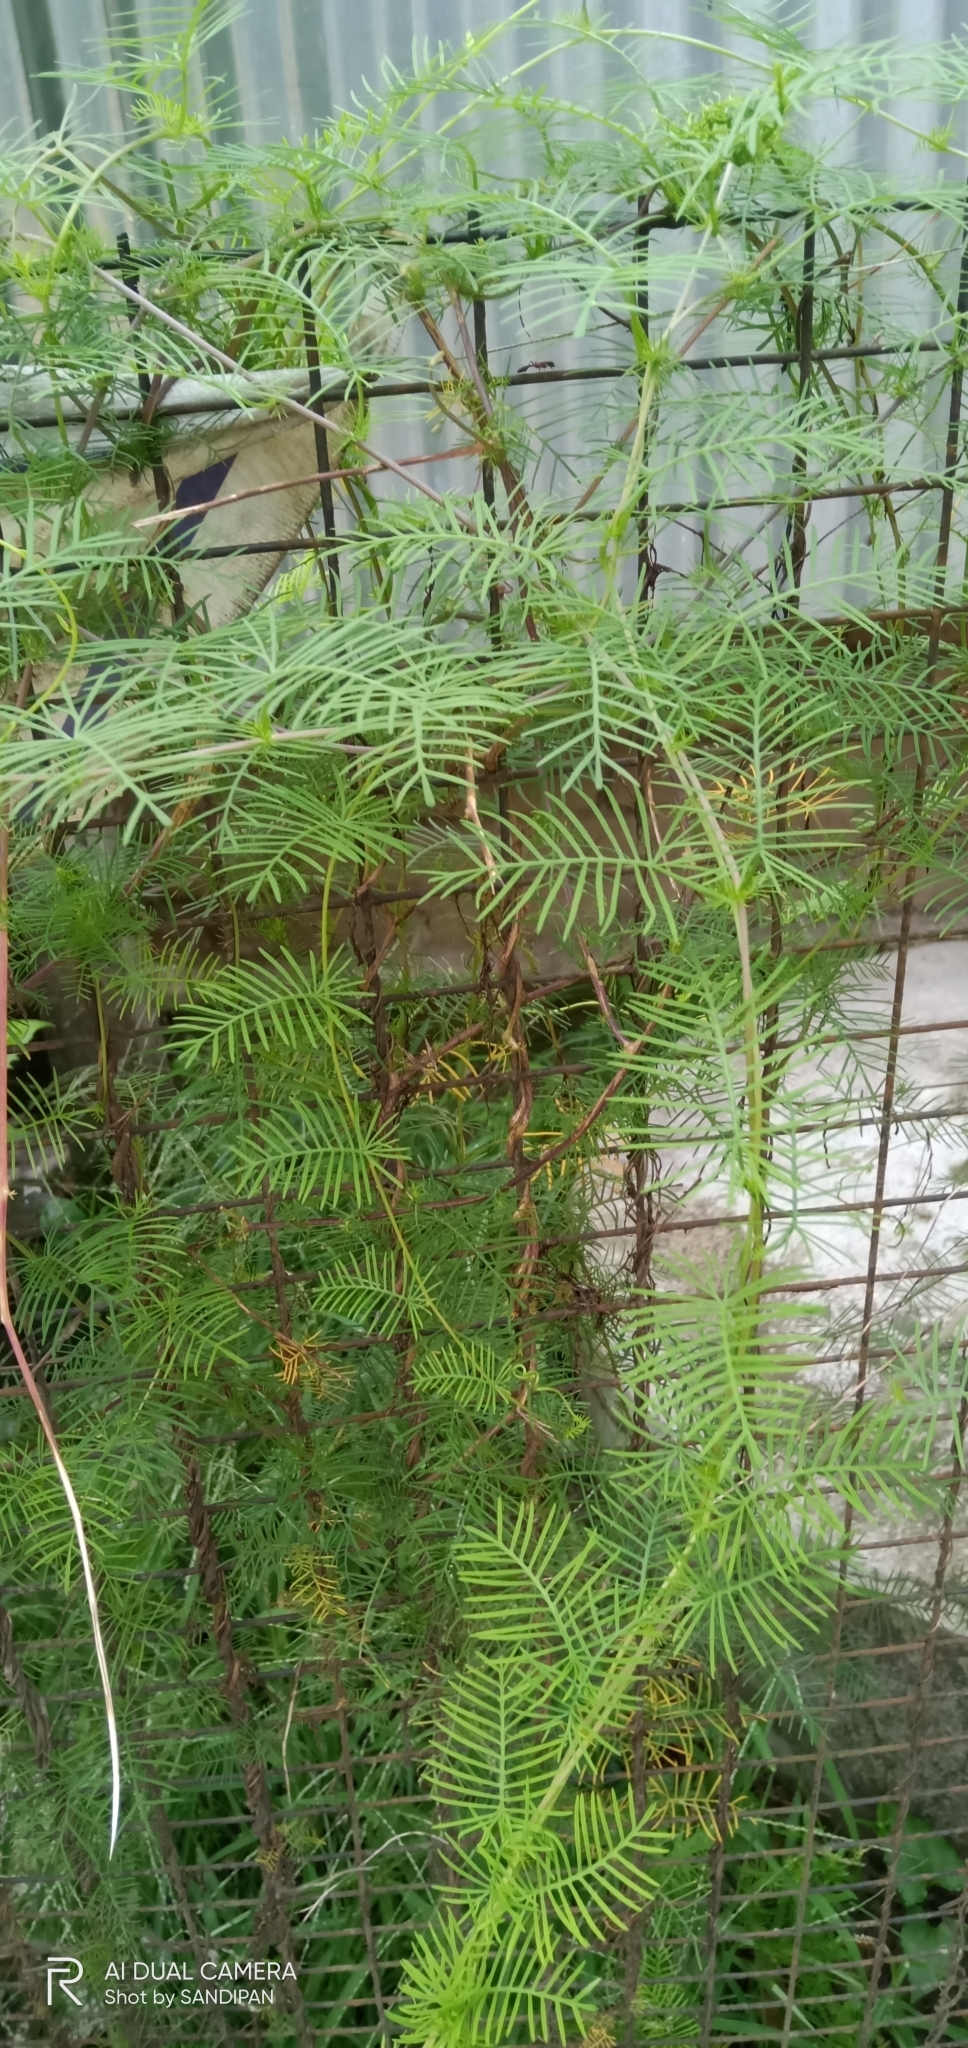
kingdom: Plantae
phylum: Tracheophyta
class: Magnoliopsida
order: Solanales
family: Convolvulaceae
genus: Ipomoea
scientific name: Ipomoea quamoclit
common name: Cypress vine
